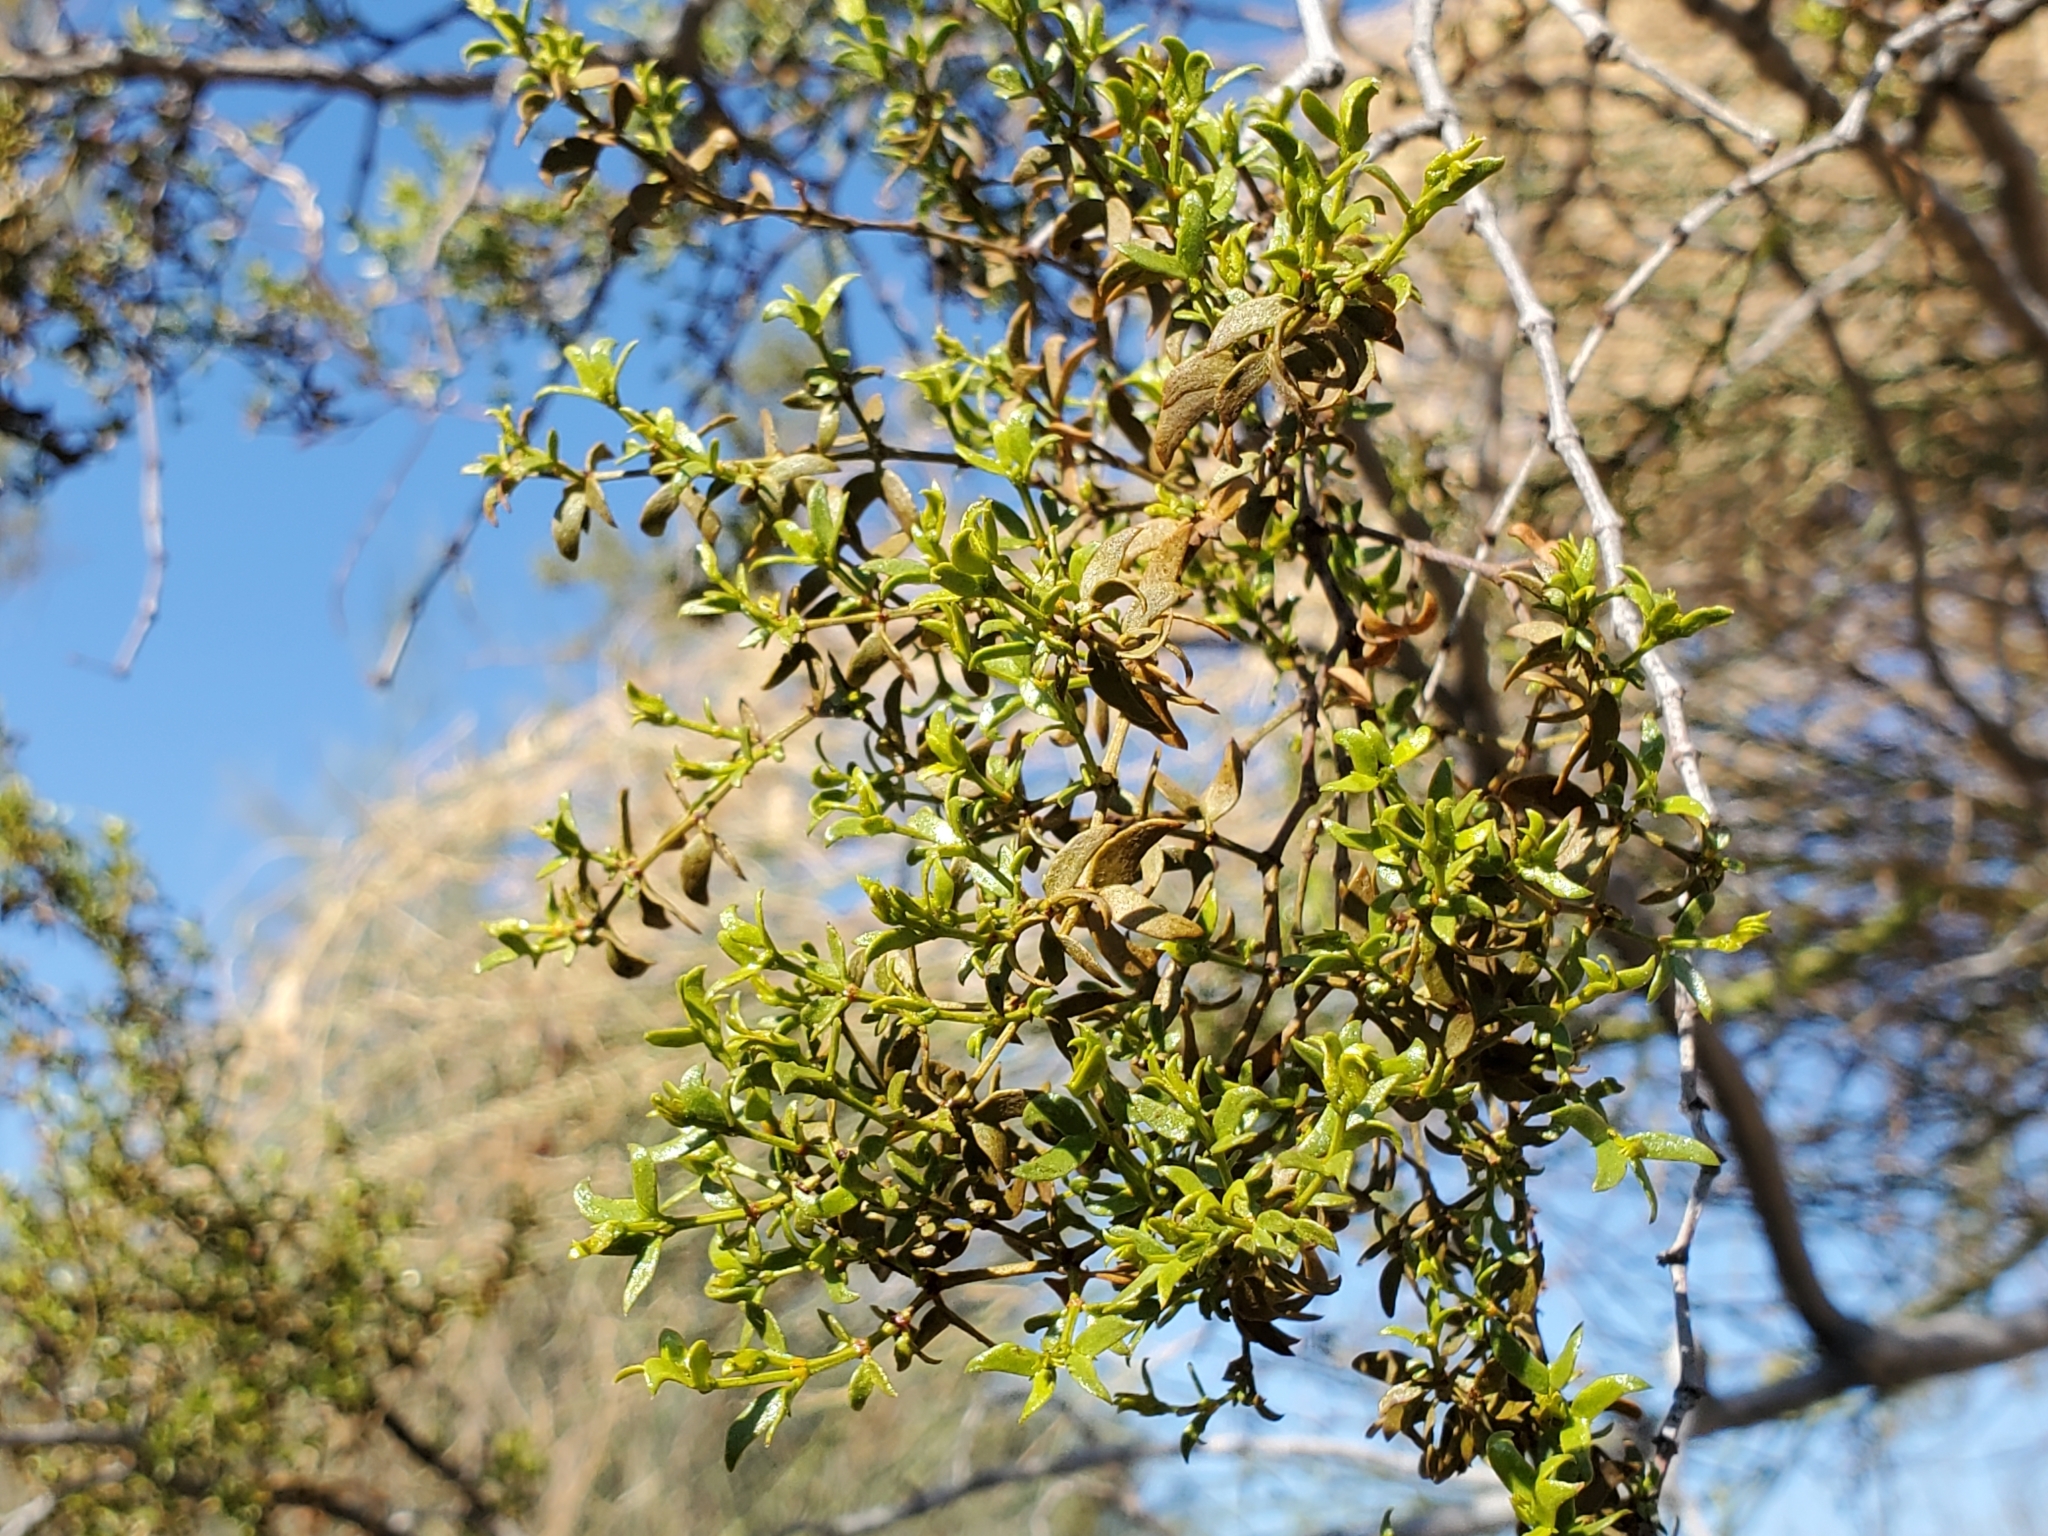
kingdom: Plantae
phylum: Tracheophyta
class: Magnoliopsida
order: Zygophyllales
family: Zygophyllaceae
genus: Larrea
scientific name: Larrea tridentata
